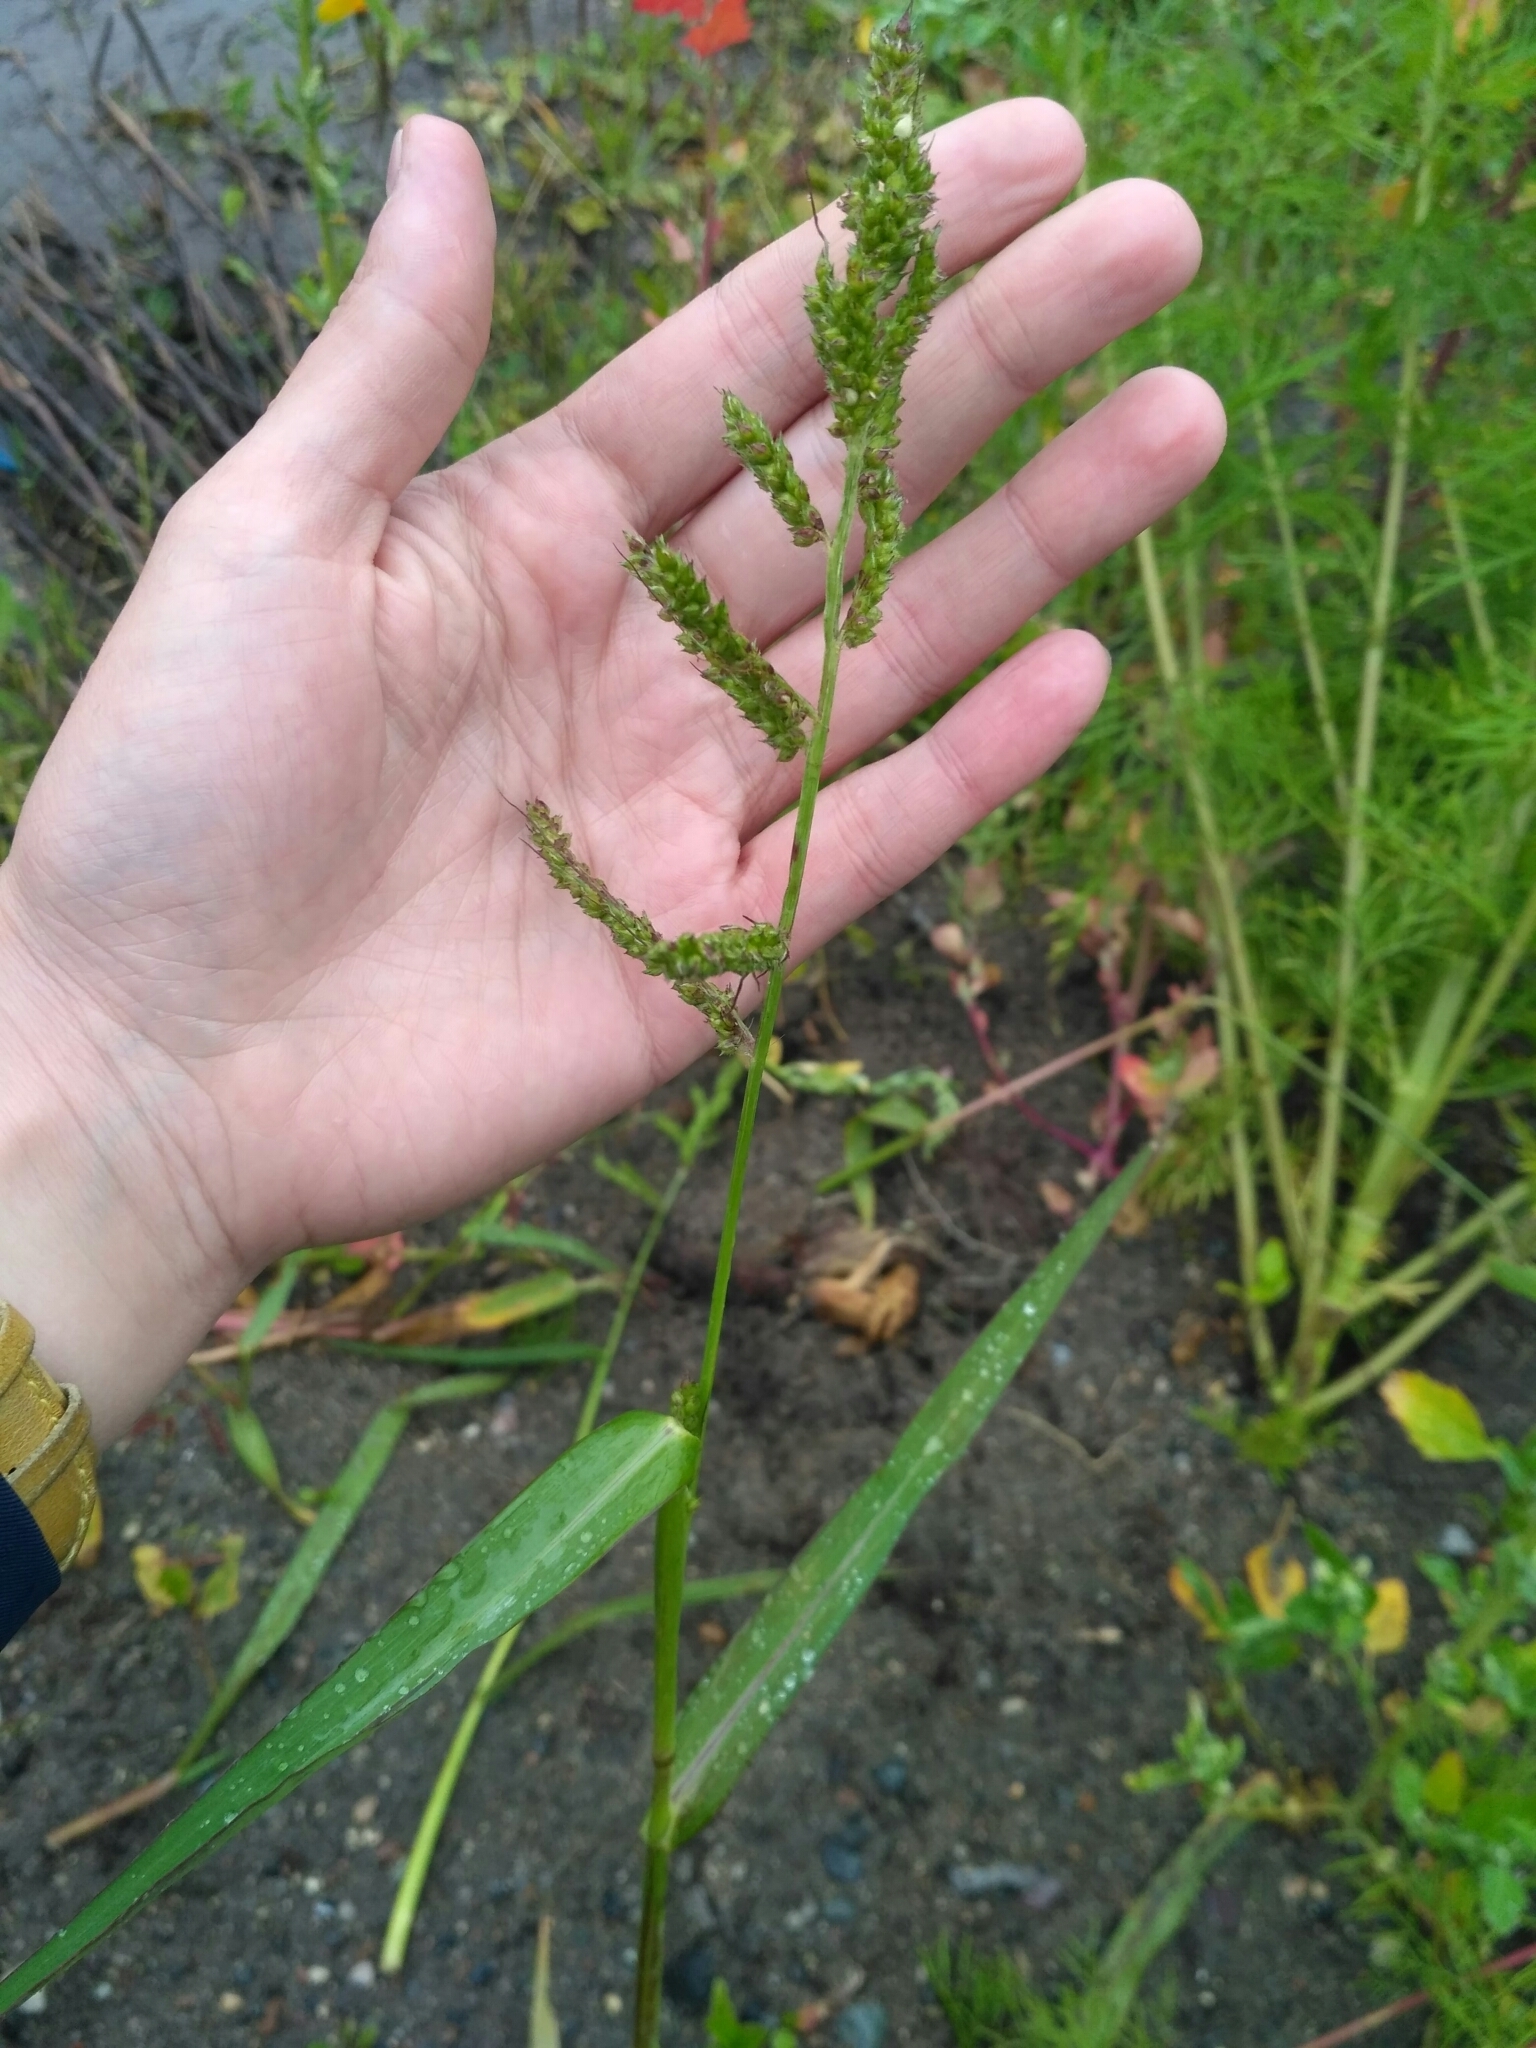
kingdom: Plantae
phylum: Tracheophyta
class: Liliopsida
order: Poales
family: Poaceae
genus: Echinochloa
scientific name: Echinochloa crus-galli
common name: Cockspur
